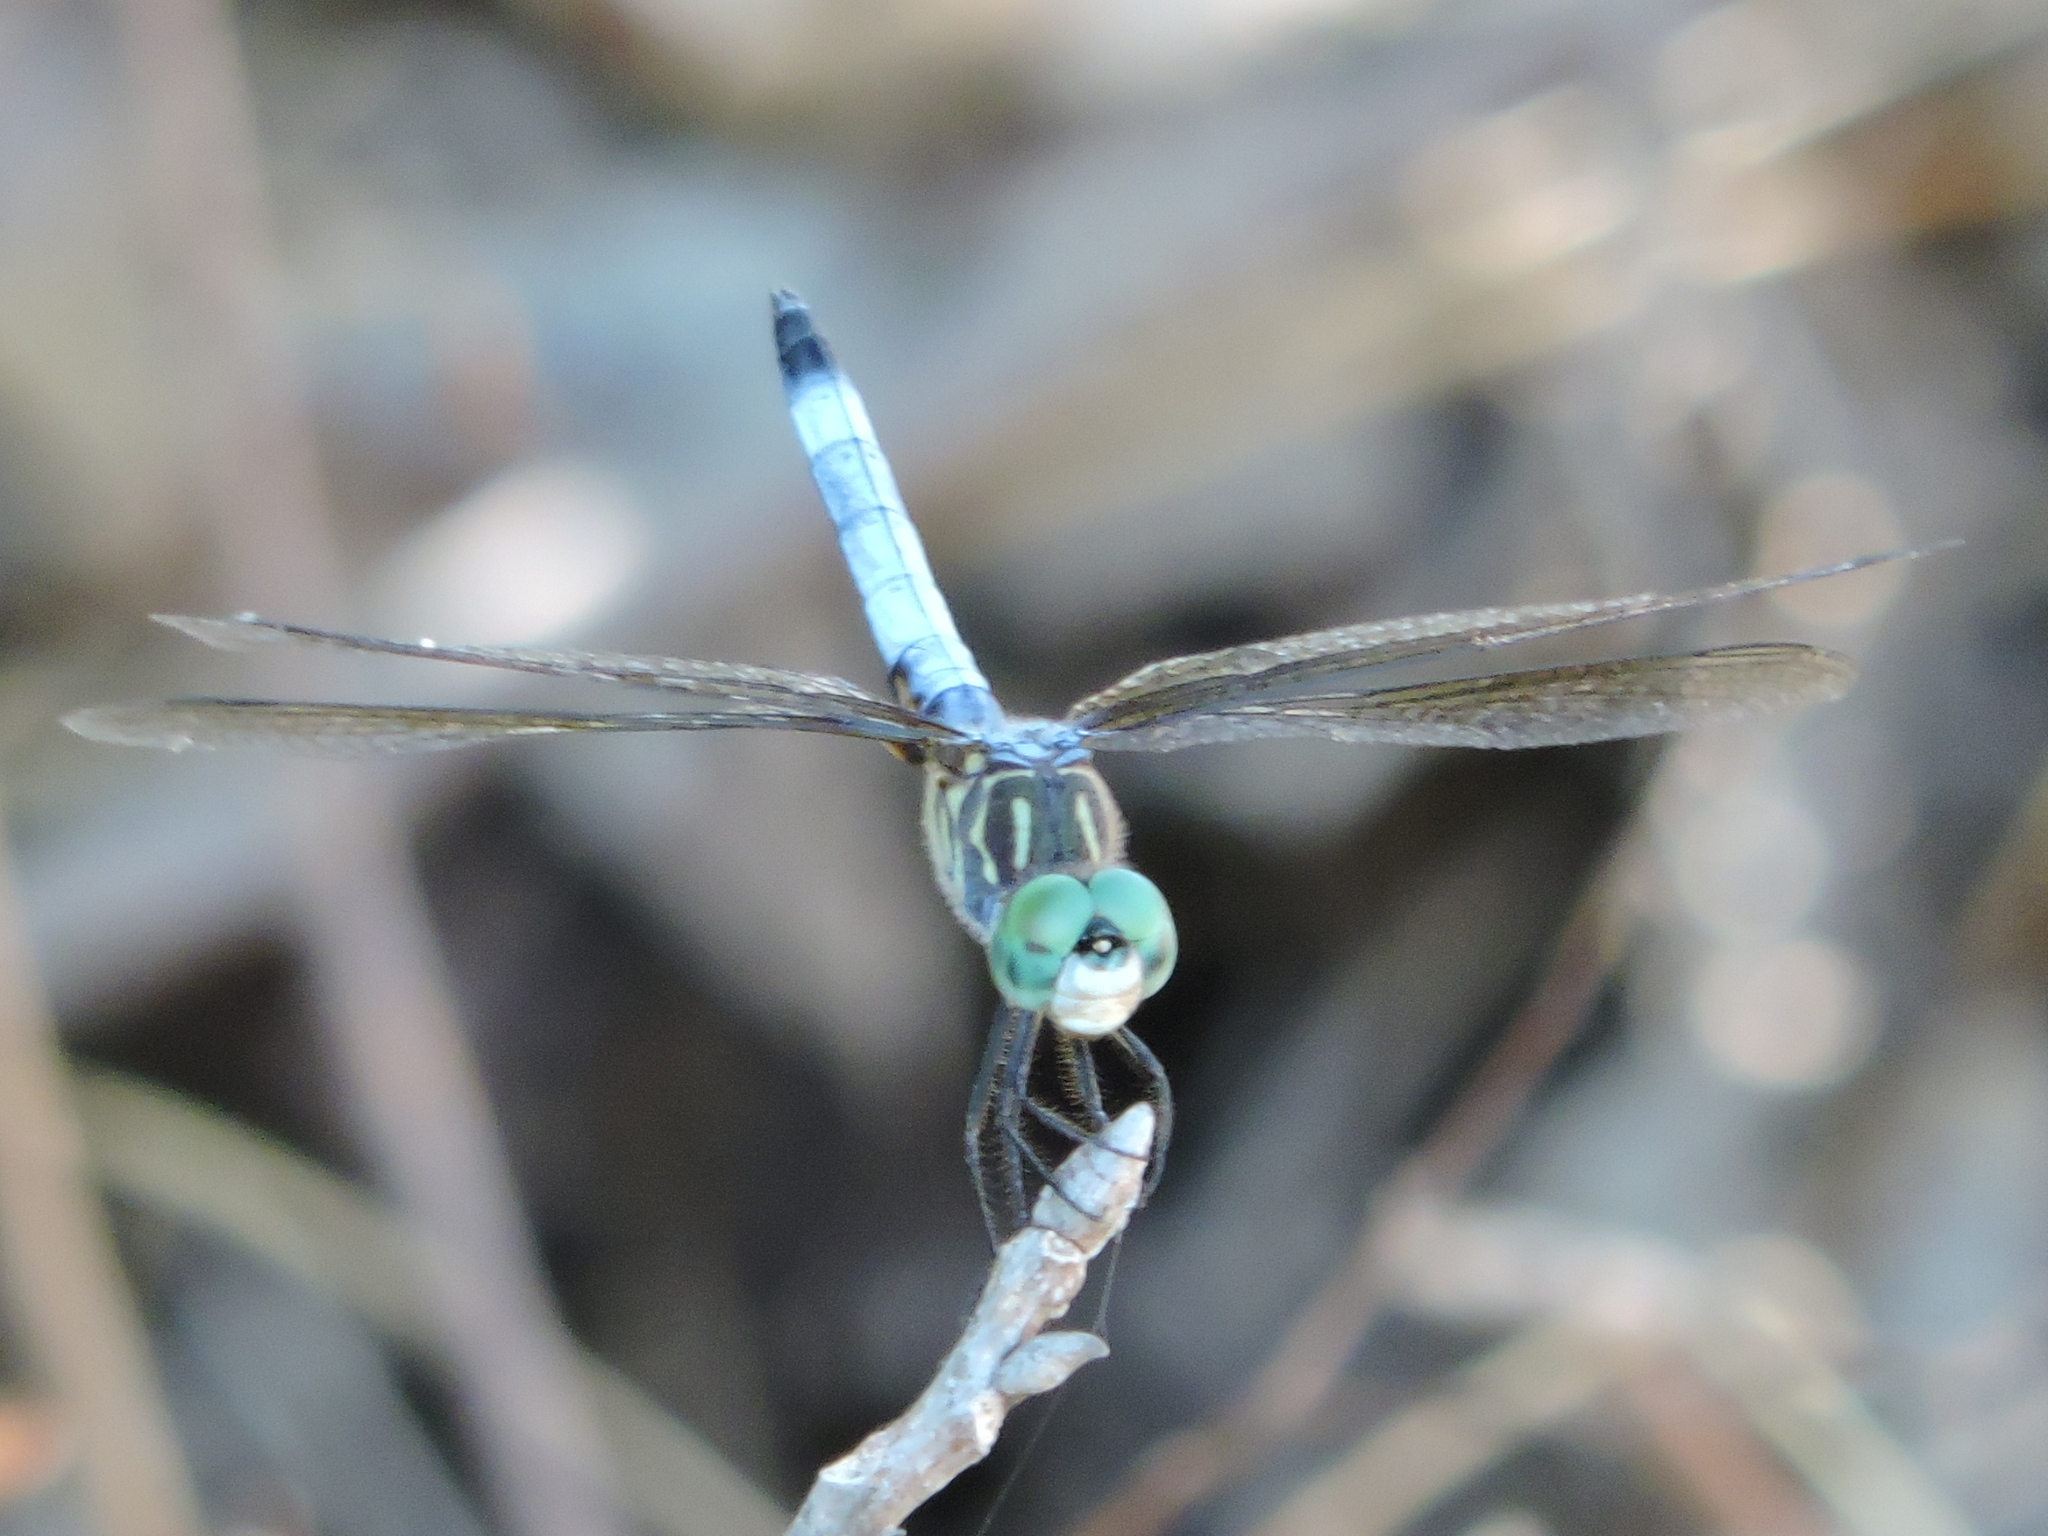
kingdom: Animalia
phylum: Arthropoda
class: Insecta
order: Odonata
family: Libellulidae
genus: Pachydiplax
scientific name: Pachydiplax longipennis
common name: Blue dasher
